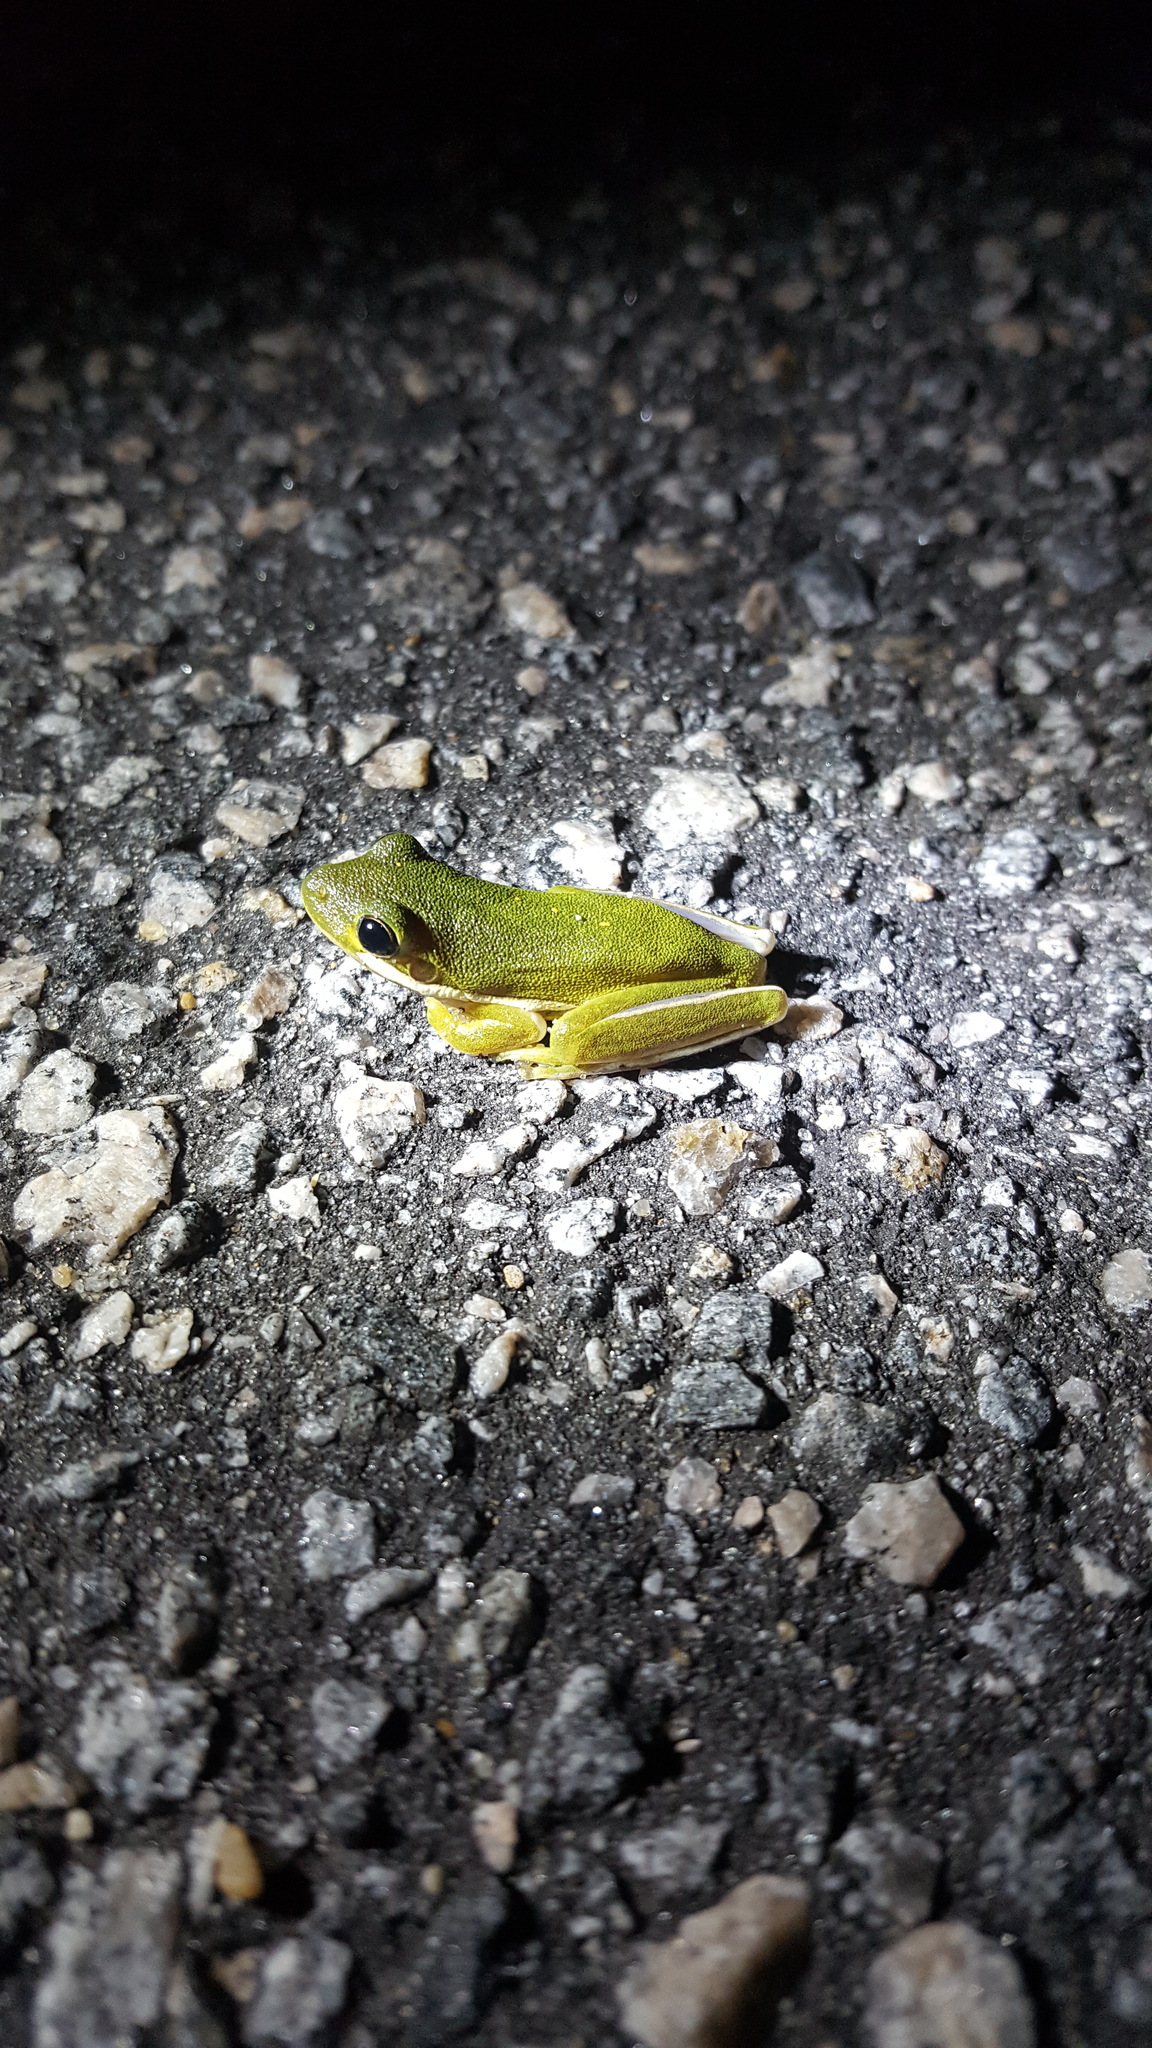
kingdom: Animalia
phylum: Chordata
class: Amphibia
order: Anura
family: Hylidae
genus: Dryophytes
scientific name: Dryophytes cinereus
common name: Green treefrog
